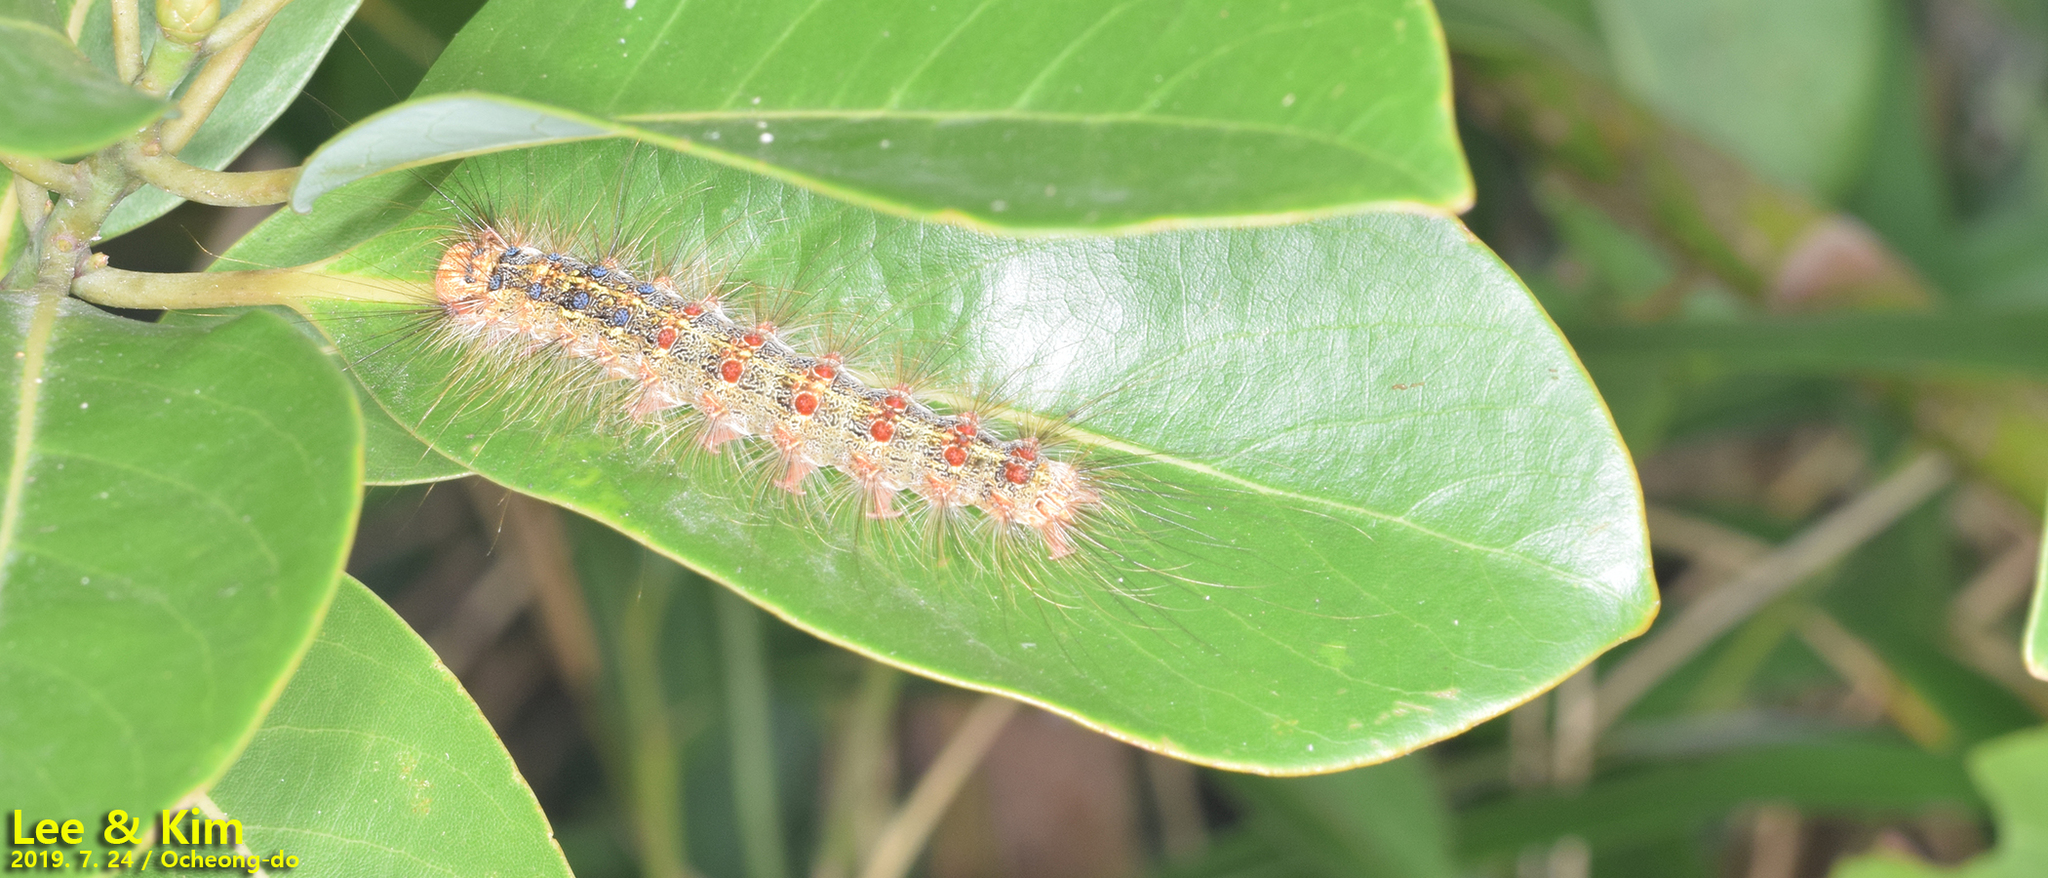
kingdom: Animalia
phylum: Arthropoda
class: Insecta
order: Lepidoptera
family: Erebidae
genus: Lymantria
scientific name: Lymantria dispar
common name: Gypsy moth
